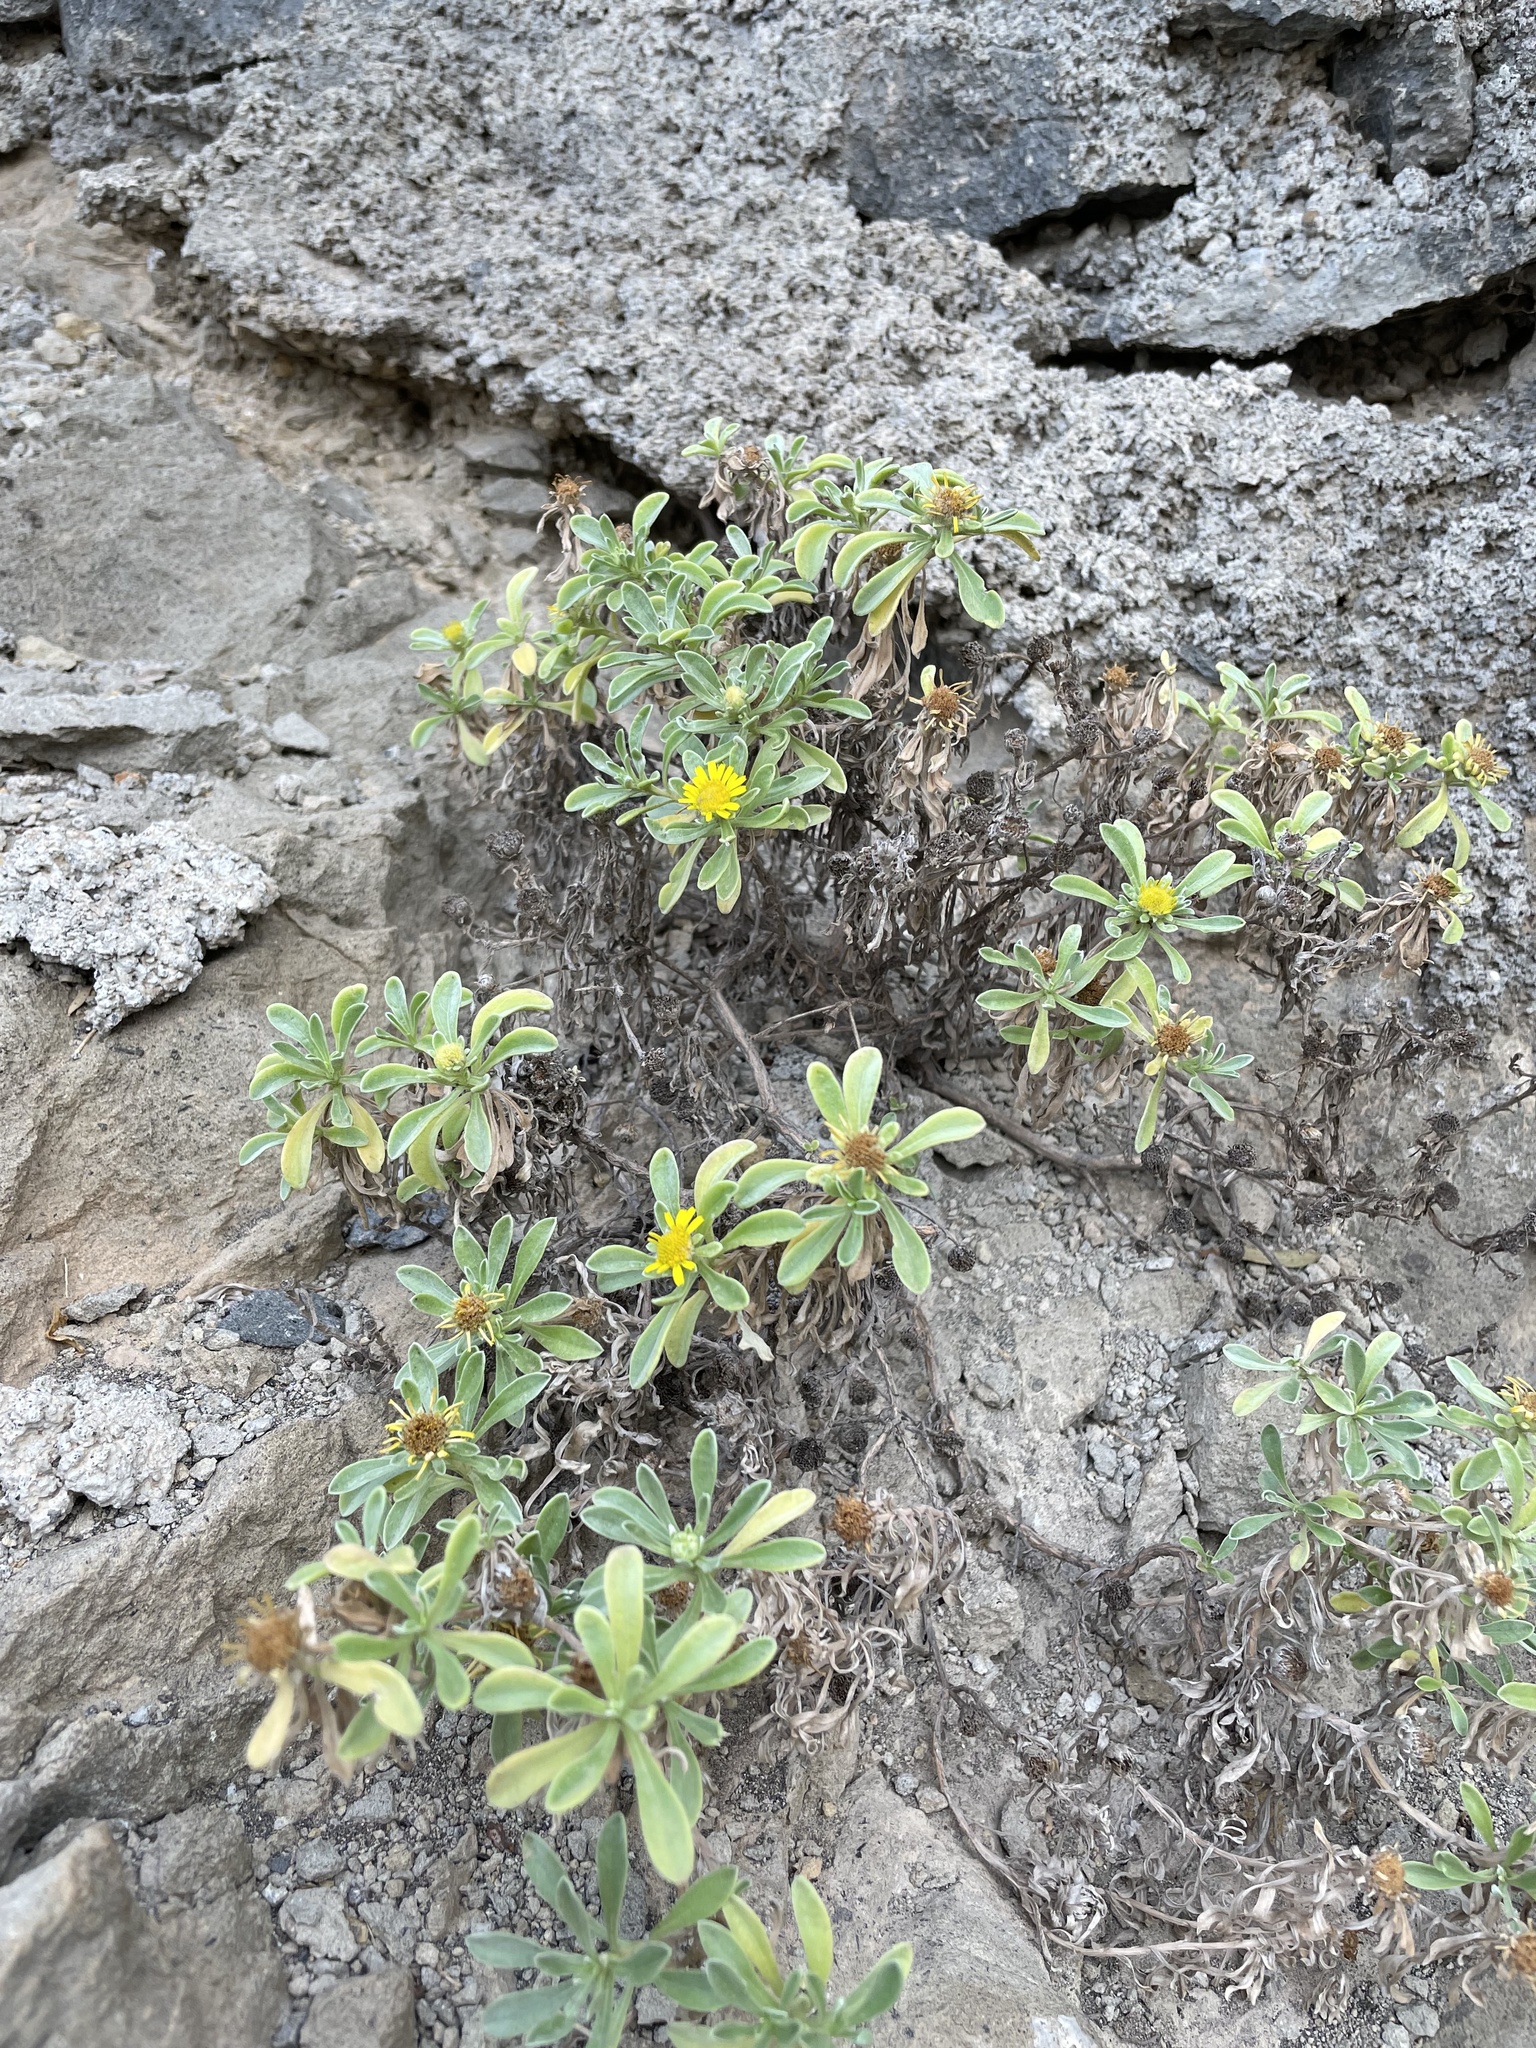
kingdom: Plantae
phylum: Tracheophyta
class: Magnoliopsida
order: Asterales
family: Asteraceae
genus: Asteriscus
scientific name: Asteriscus daltonii
